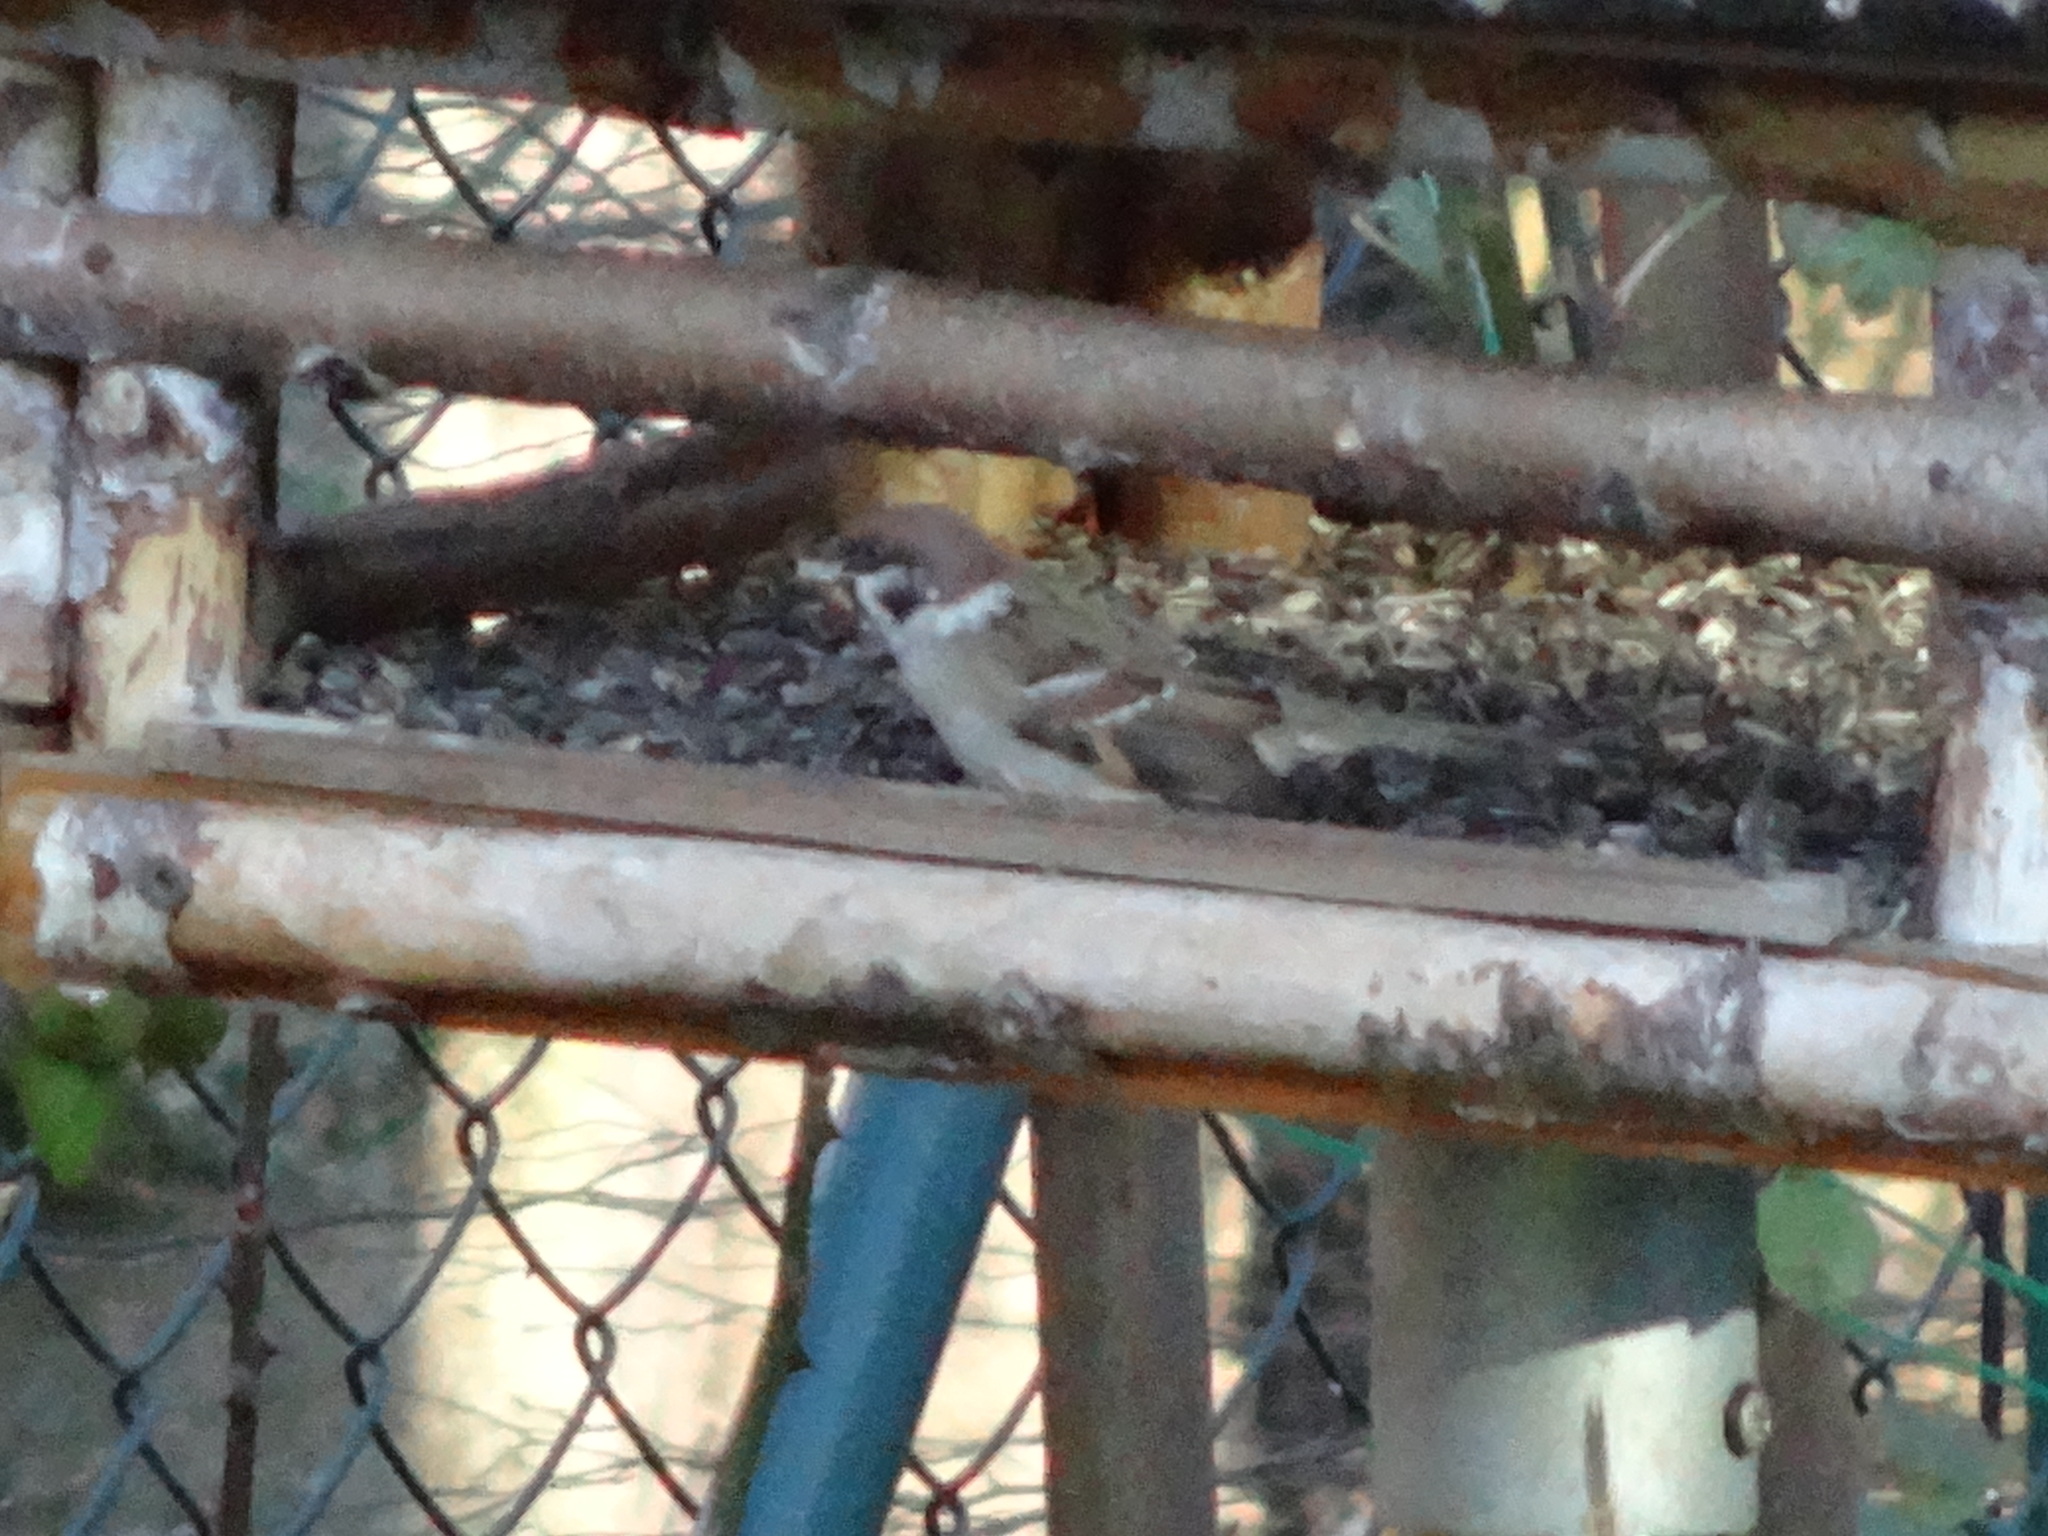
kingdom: Animalia
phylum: Chordata
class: Aves
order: Passeriformes
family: Passeridae
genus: Passer
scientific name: Passer montanus
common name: Eurasian tree sparrow
